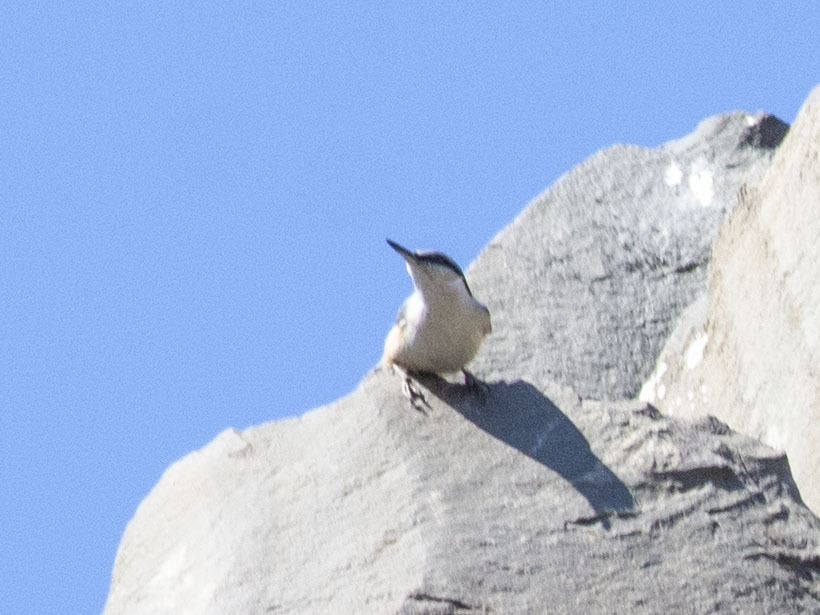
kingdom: Animalia
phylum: Chordata
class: Aves
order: Passeriformes
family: Sittidae
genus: Sitta
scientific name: Sitta neumayer
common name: Western rock nuthatch
